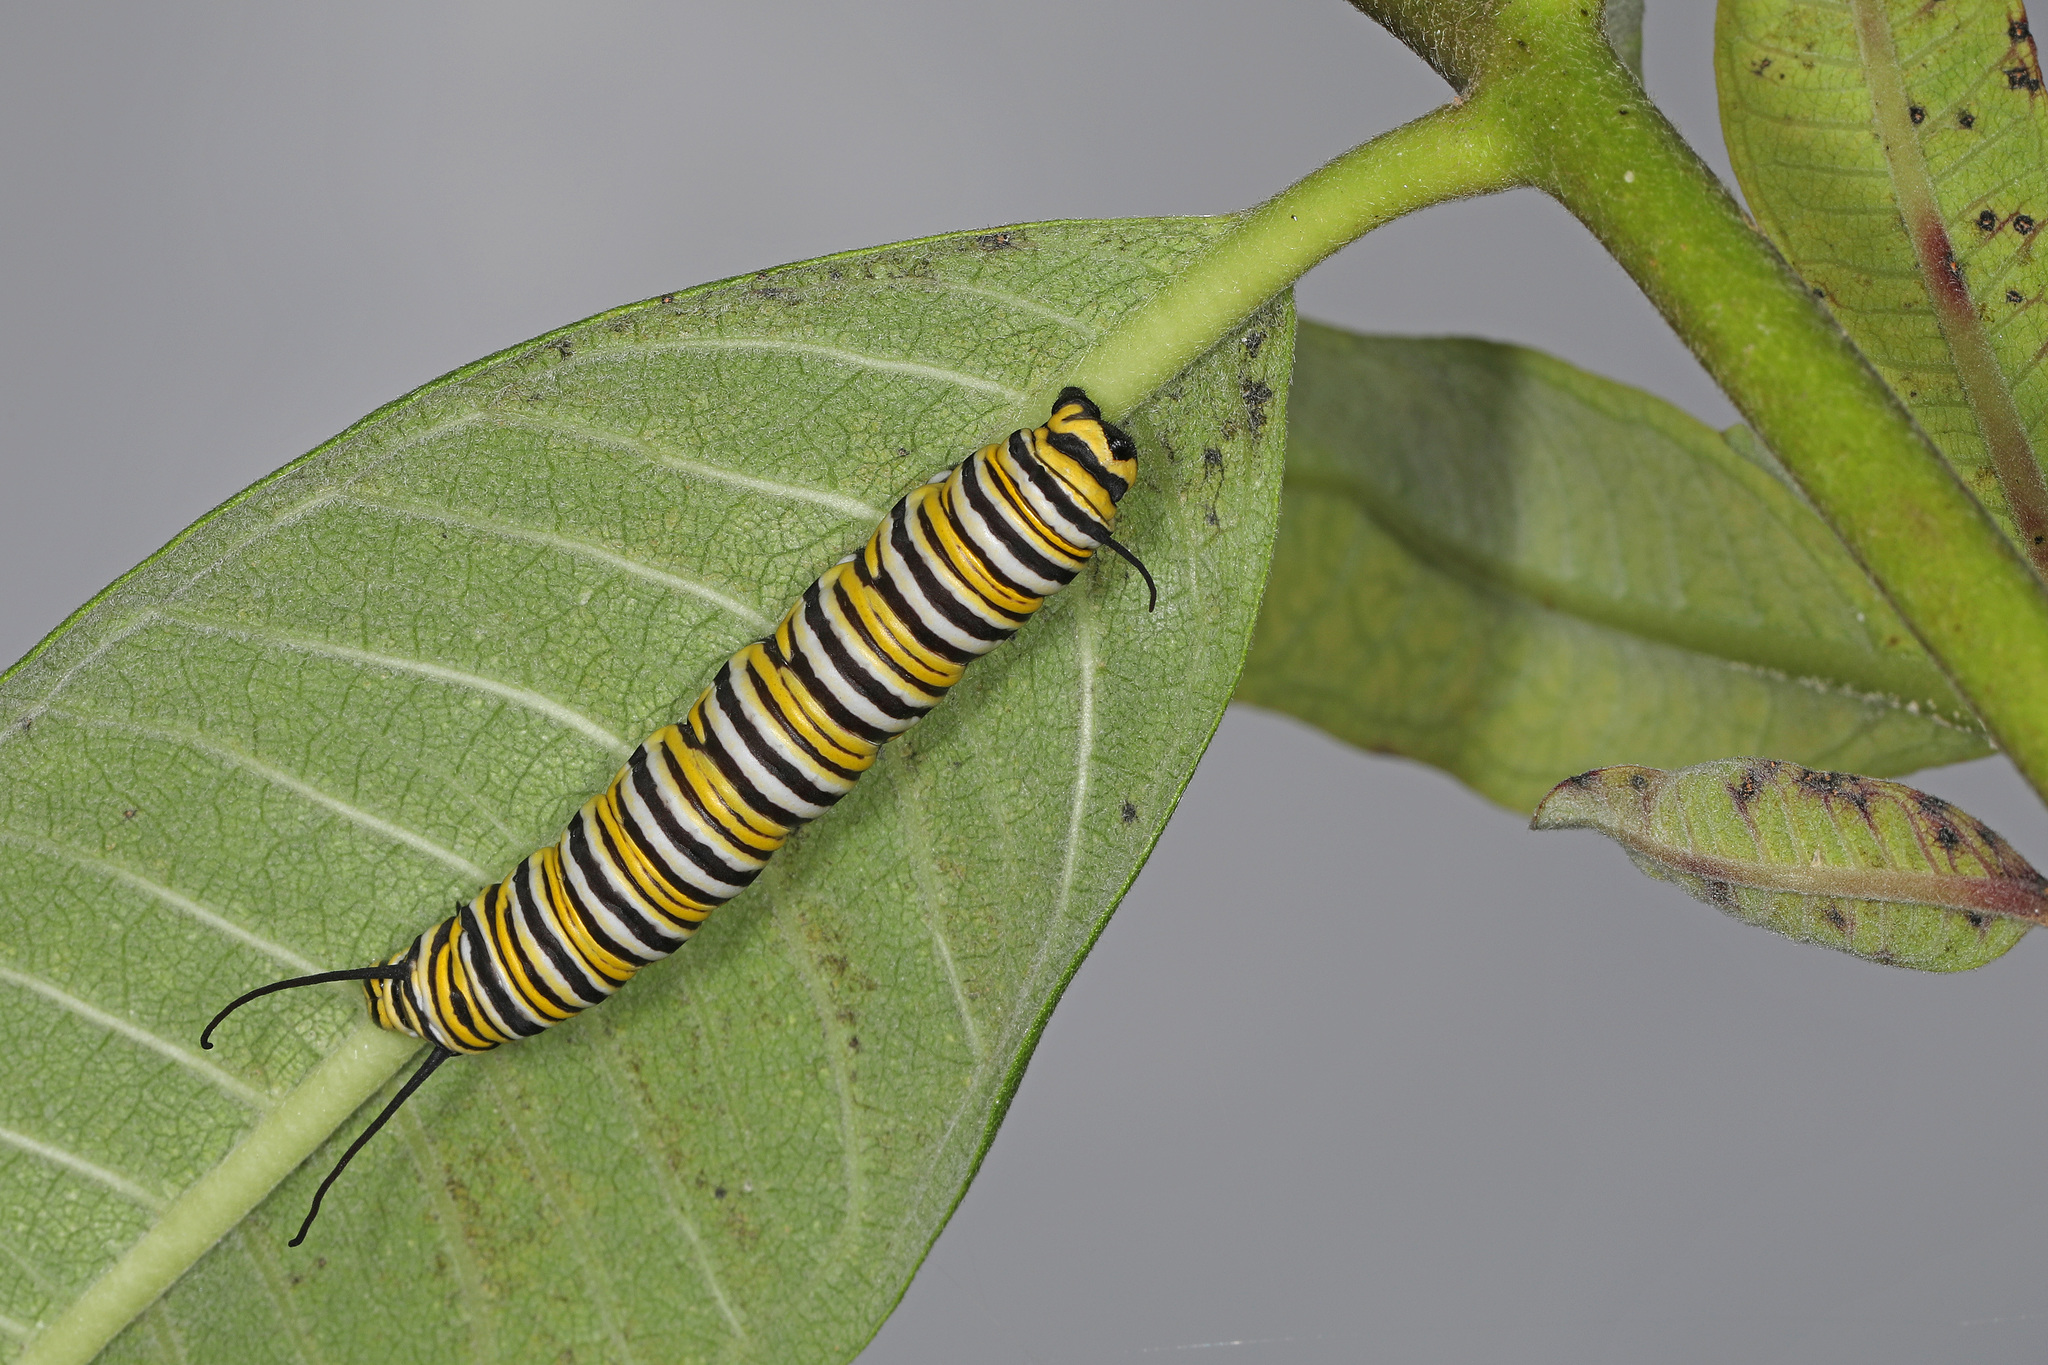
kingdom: Animalia
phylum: Arthropoda
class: Insecta
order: Lepidoptera
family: Nymphalidae
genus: Danaus
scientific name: Danaus plexippus
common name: Monarch
